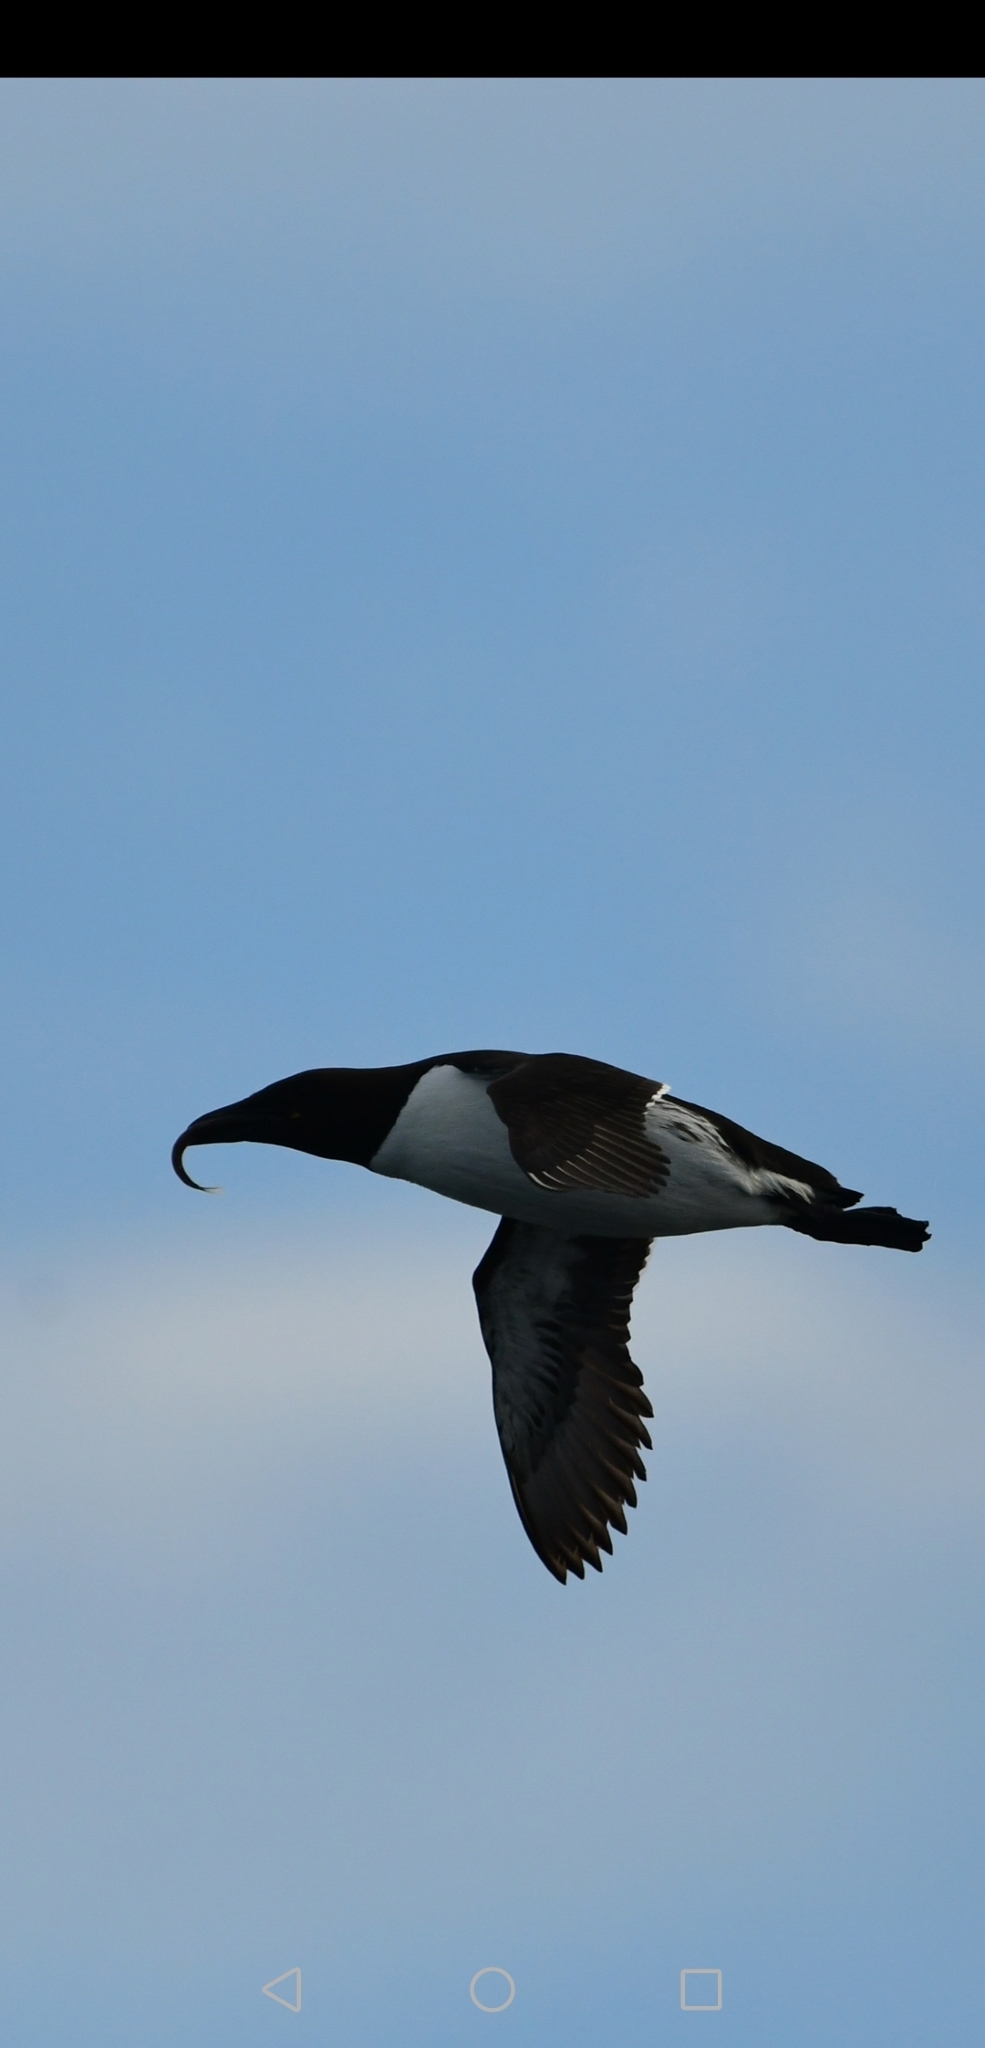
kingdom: Animalia
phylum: Chordata
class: Aves
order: Charadriiformes
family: Alcidae
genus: Alca
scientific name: Alca torda
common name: Razorbill
